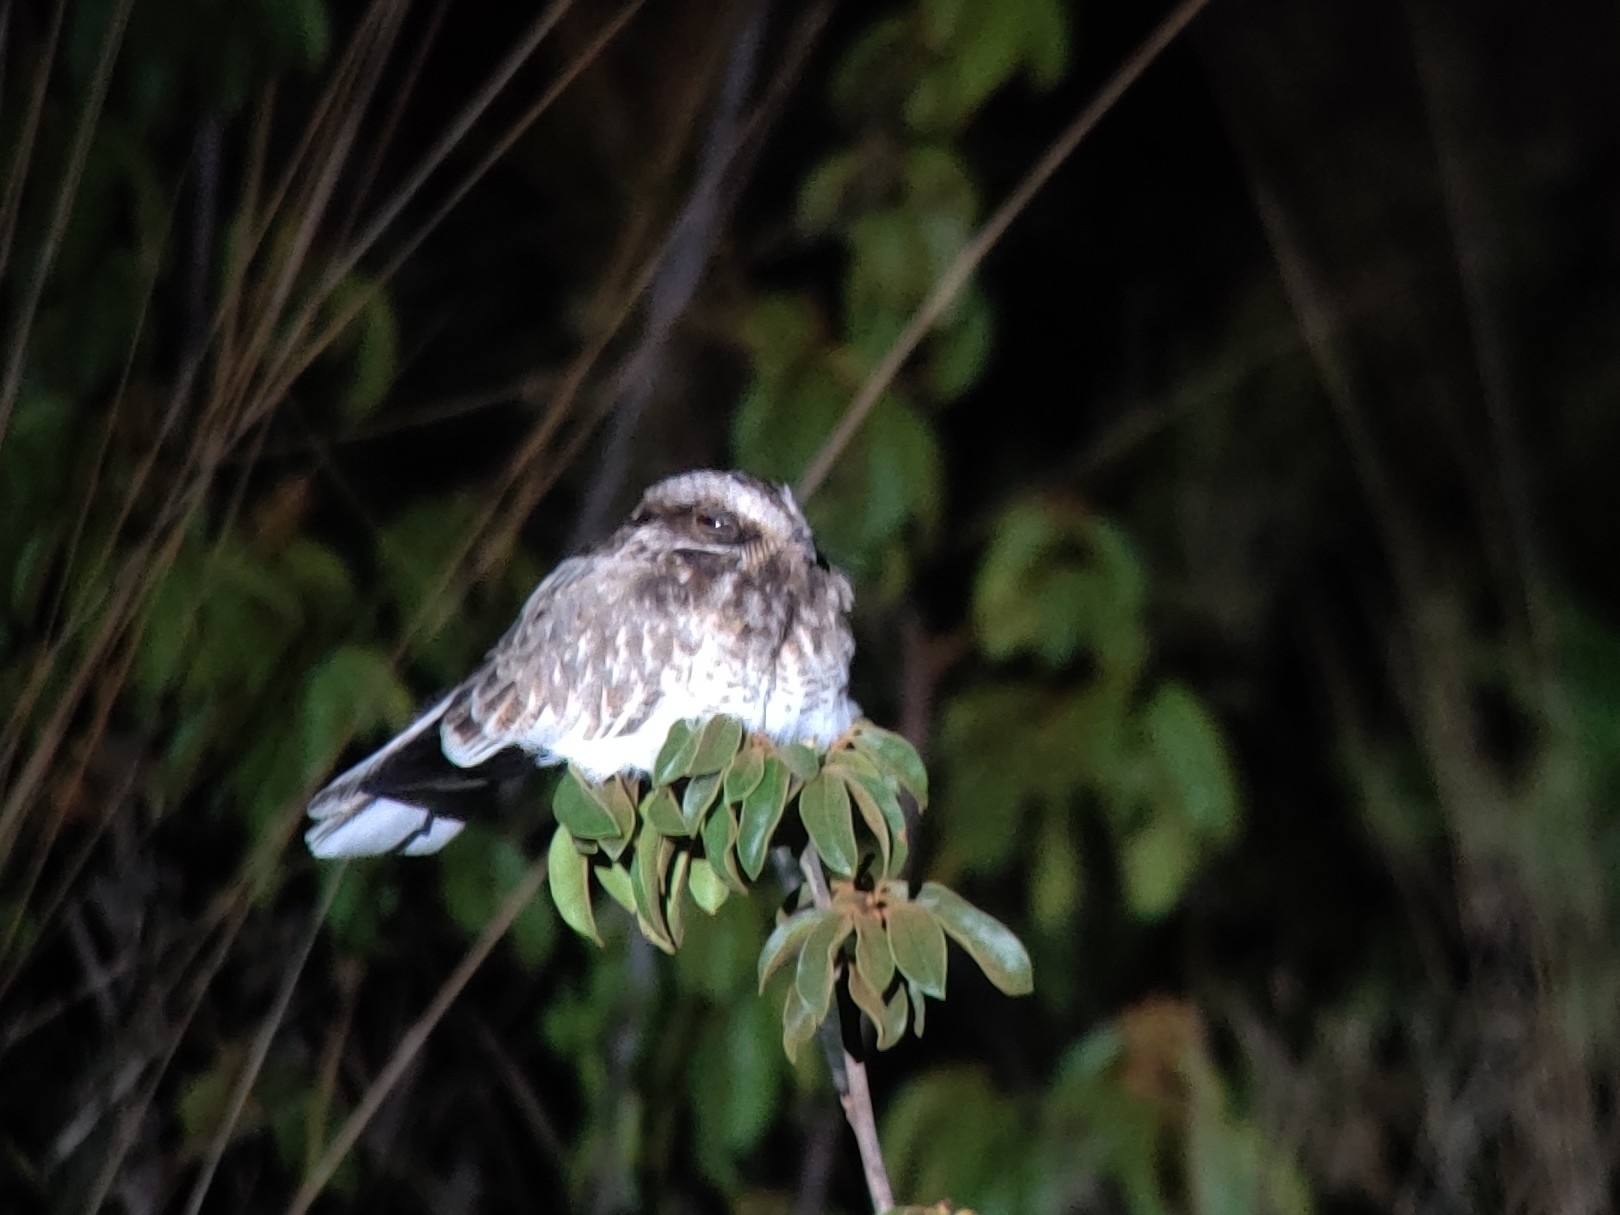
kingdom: Animalia
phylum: Chordata
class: Aves
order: Caprimulgiformes
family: Caprimulgidae
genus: Eleothreptus
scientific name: Eleothreptus candicans
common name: White-winged nightjar
